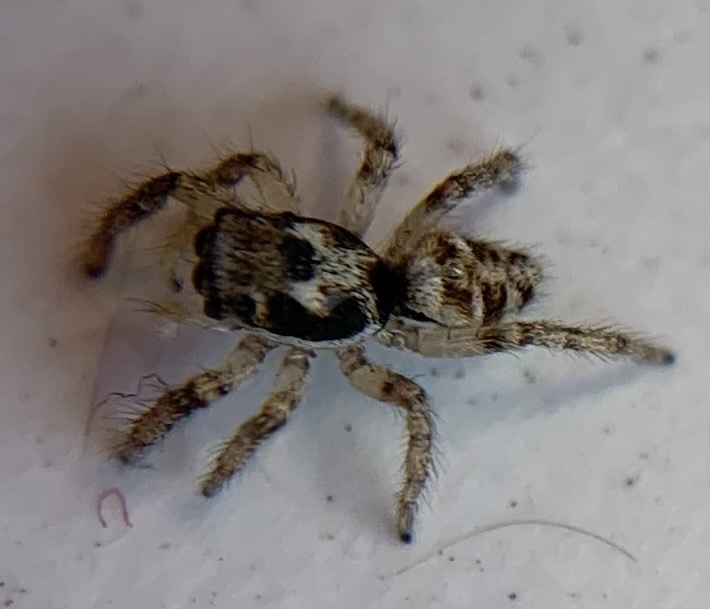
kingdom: Animalia
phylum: Arthropoda
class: Arachnida
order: Araneae
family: Salticidae
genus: Salticus
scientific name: Salticus scenicus
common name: Zebra jumper
